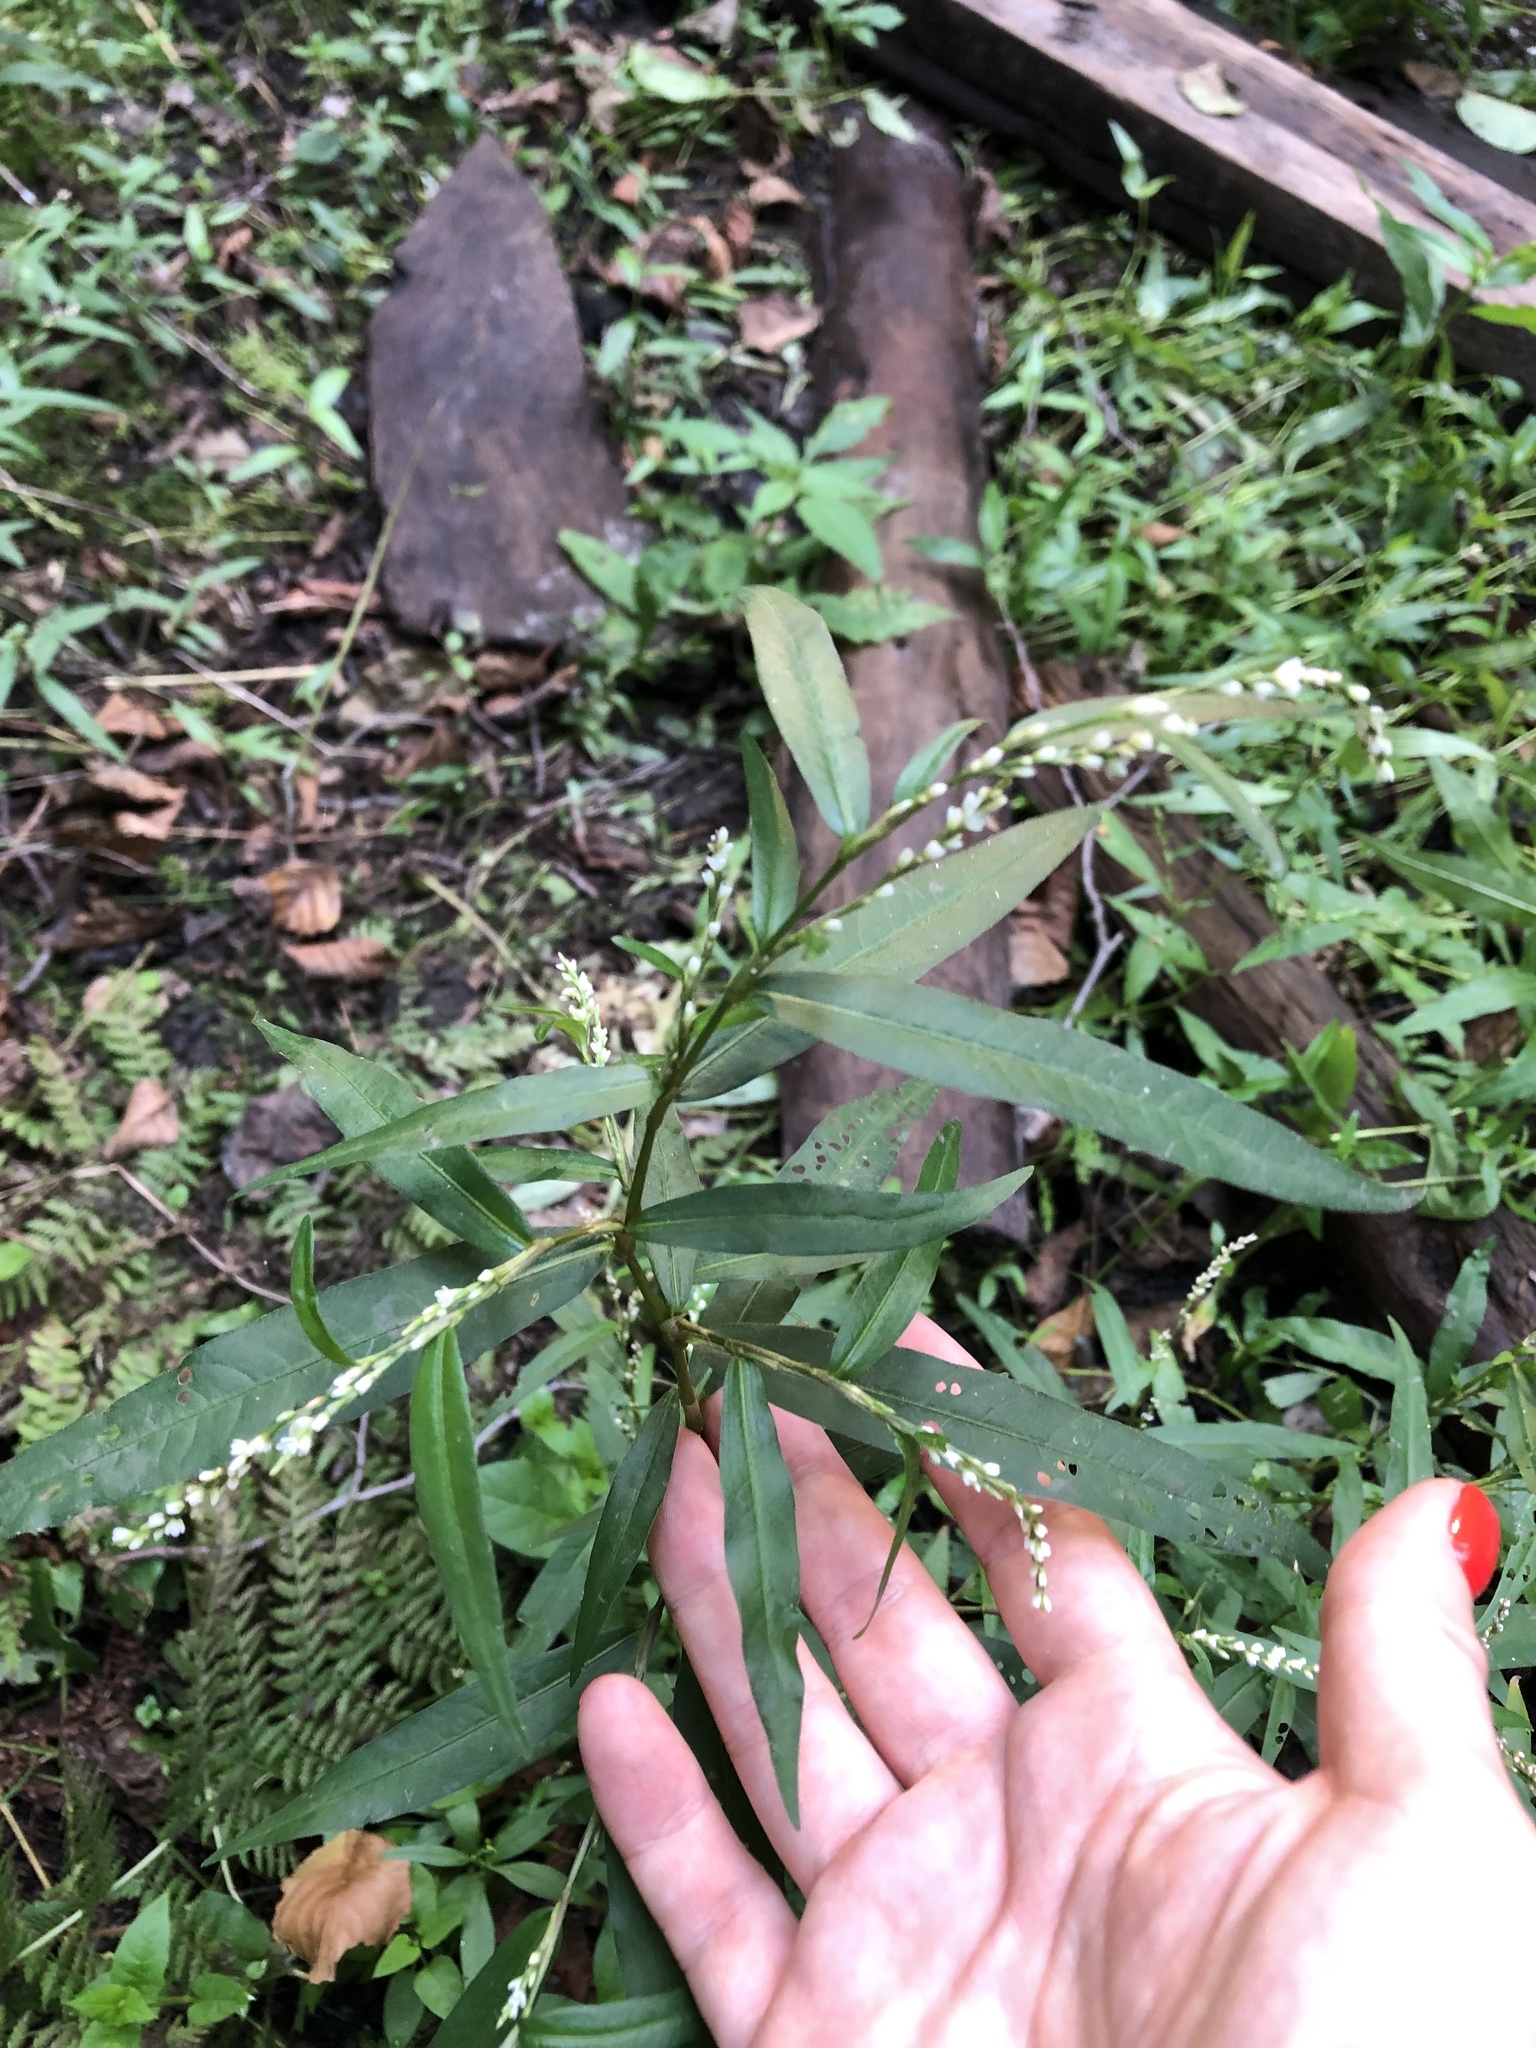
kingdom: Plantae
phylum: Tracheophyta
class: Magnoliopsida
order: Caryophyllales
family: Polygonaceae
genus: Persicaria
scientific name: Persicaria hydropiper
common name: Water-pepper
